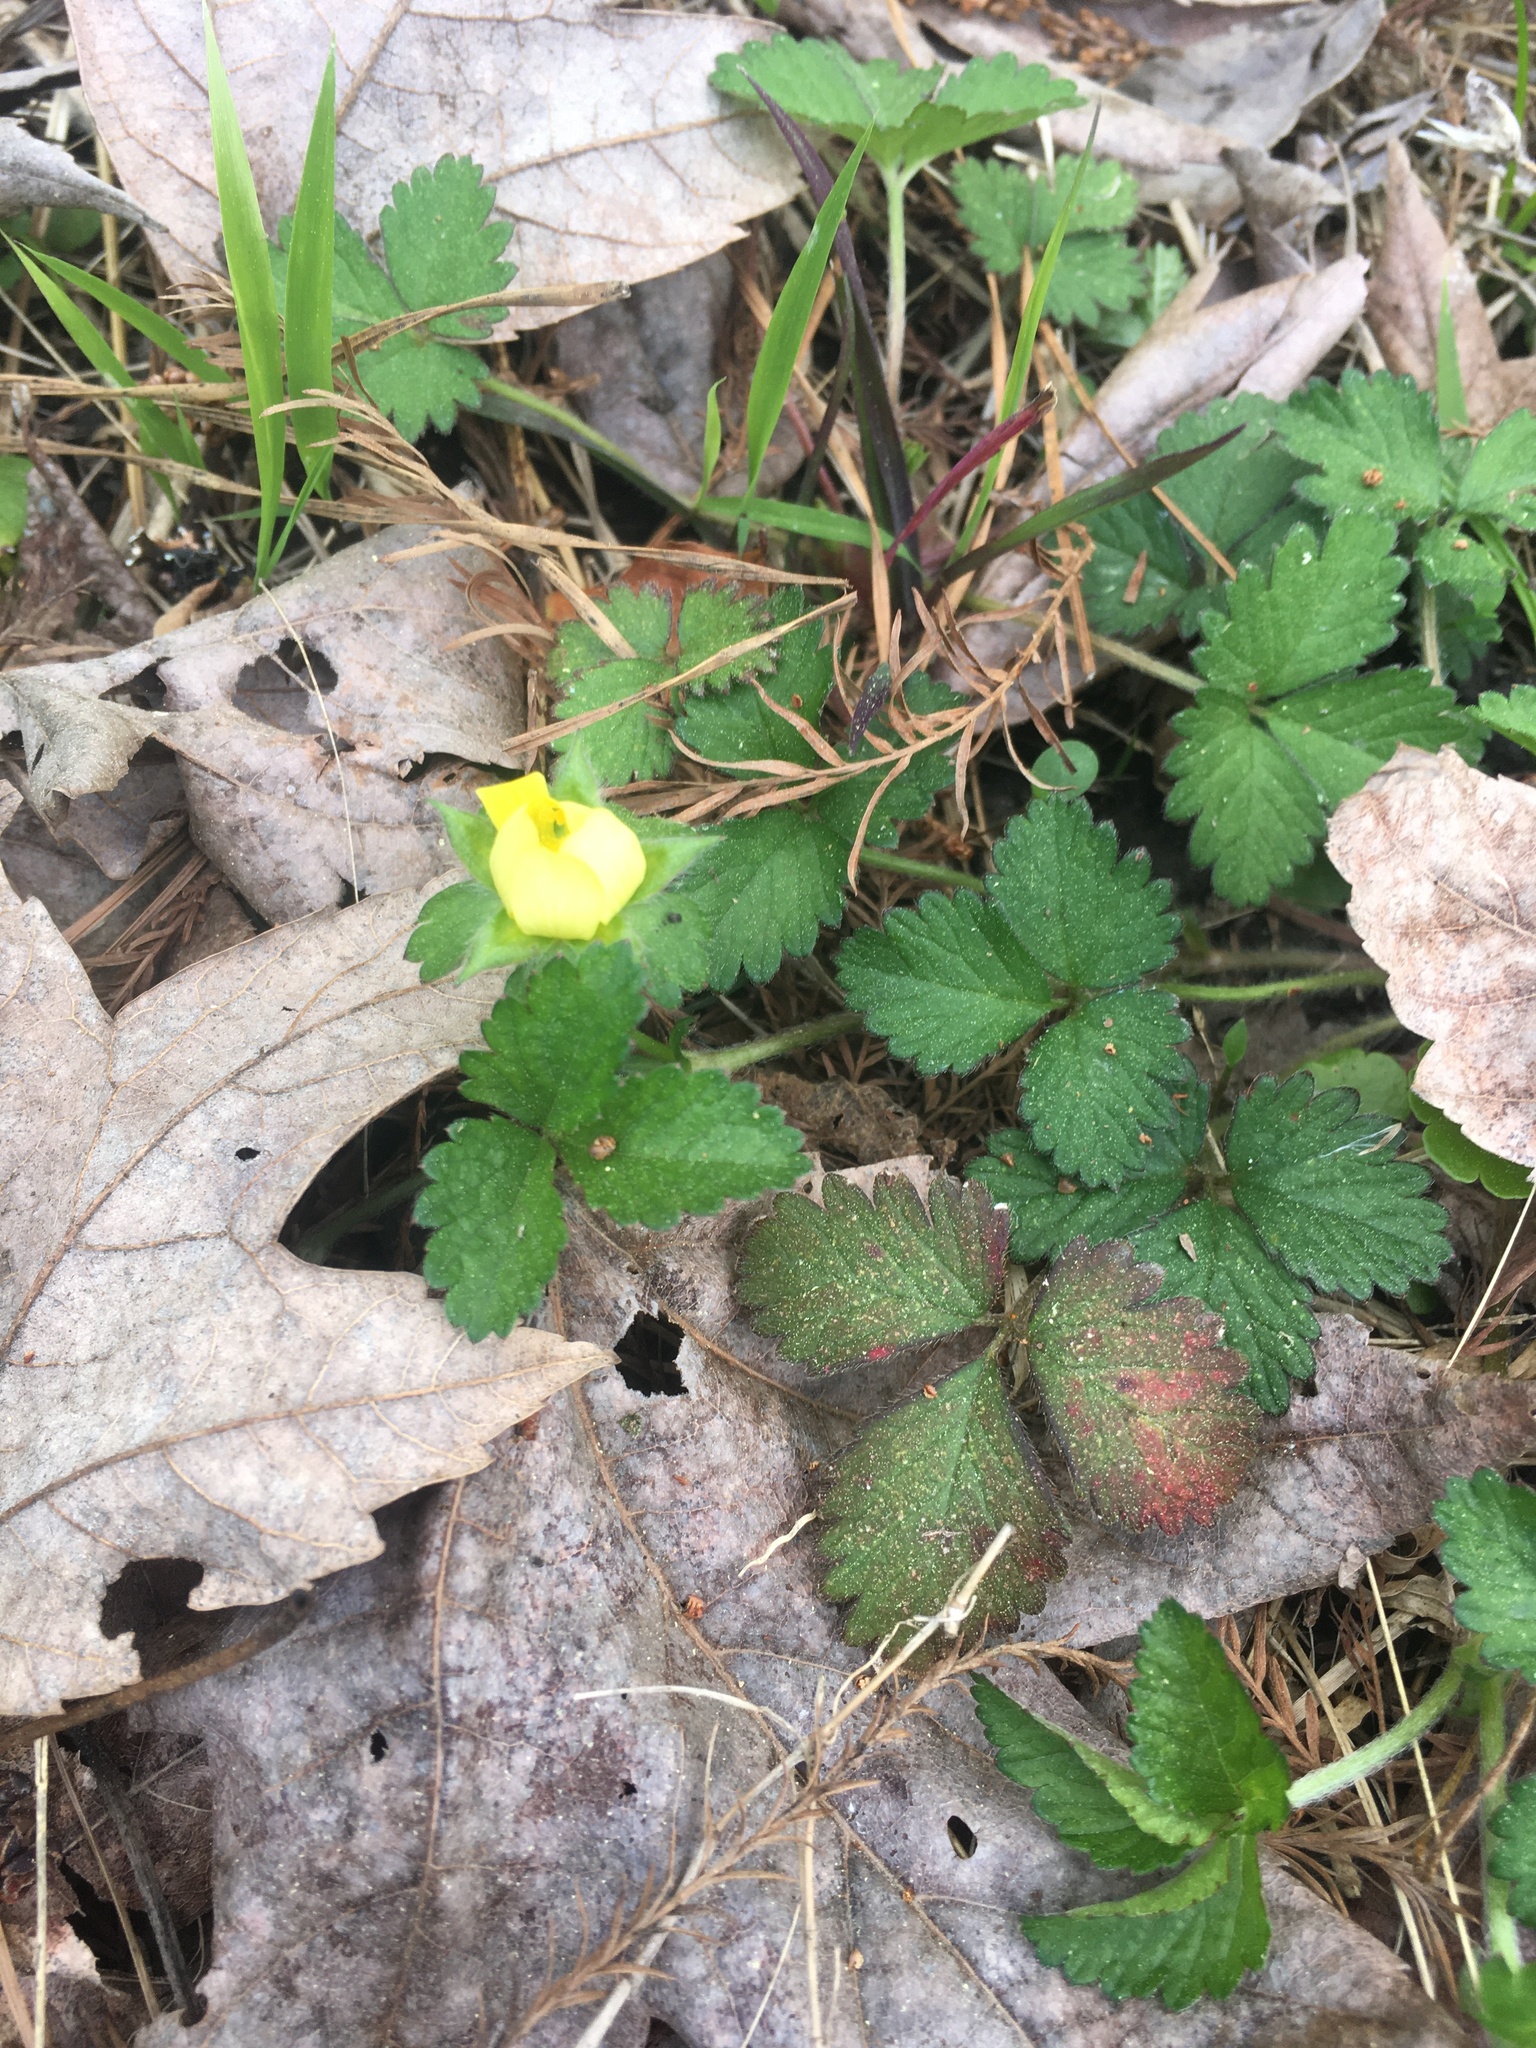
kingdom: Plantae
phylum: Tracheophyta
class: Magnoliopsida
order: Rosales
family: Rosaceae
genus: Potentilla
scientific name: Potentilla indica
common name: Yellow-flowered strawberry
